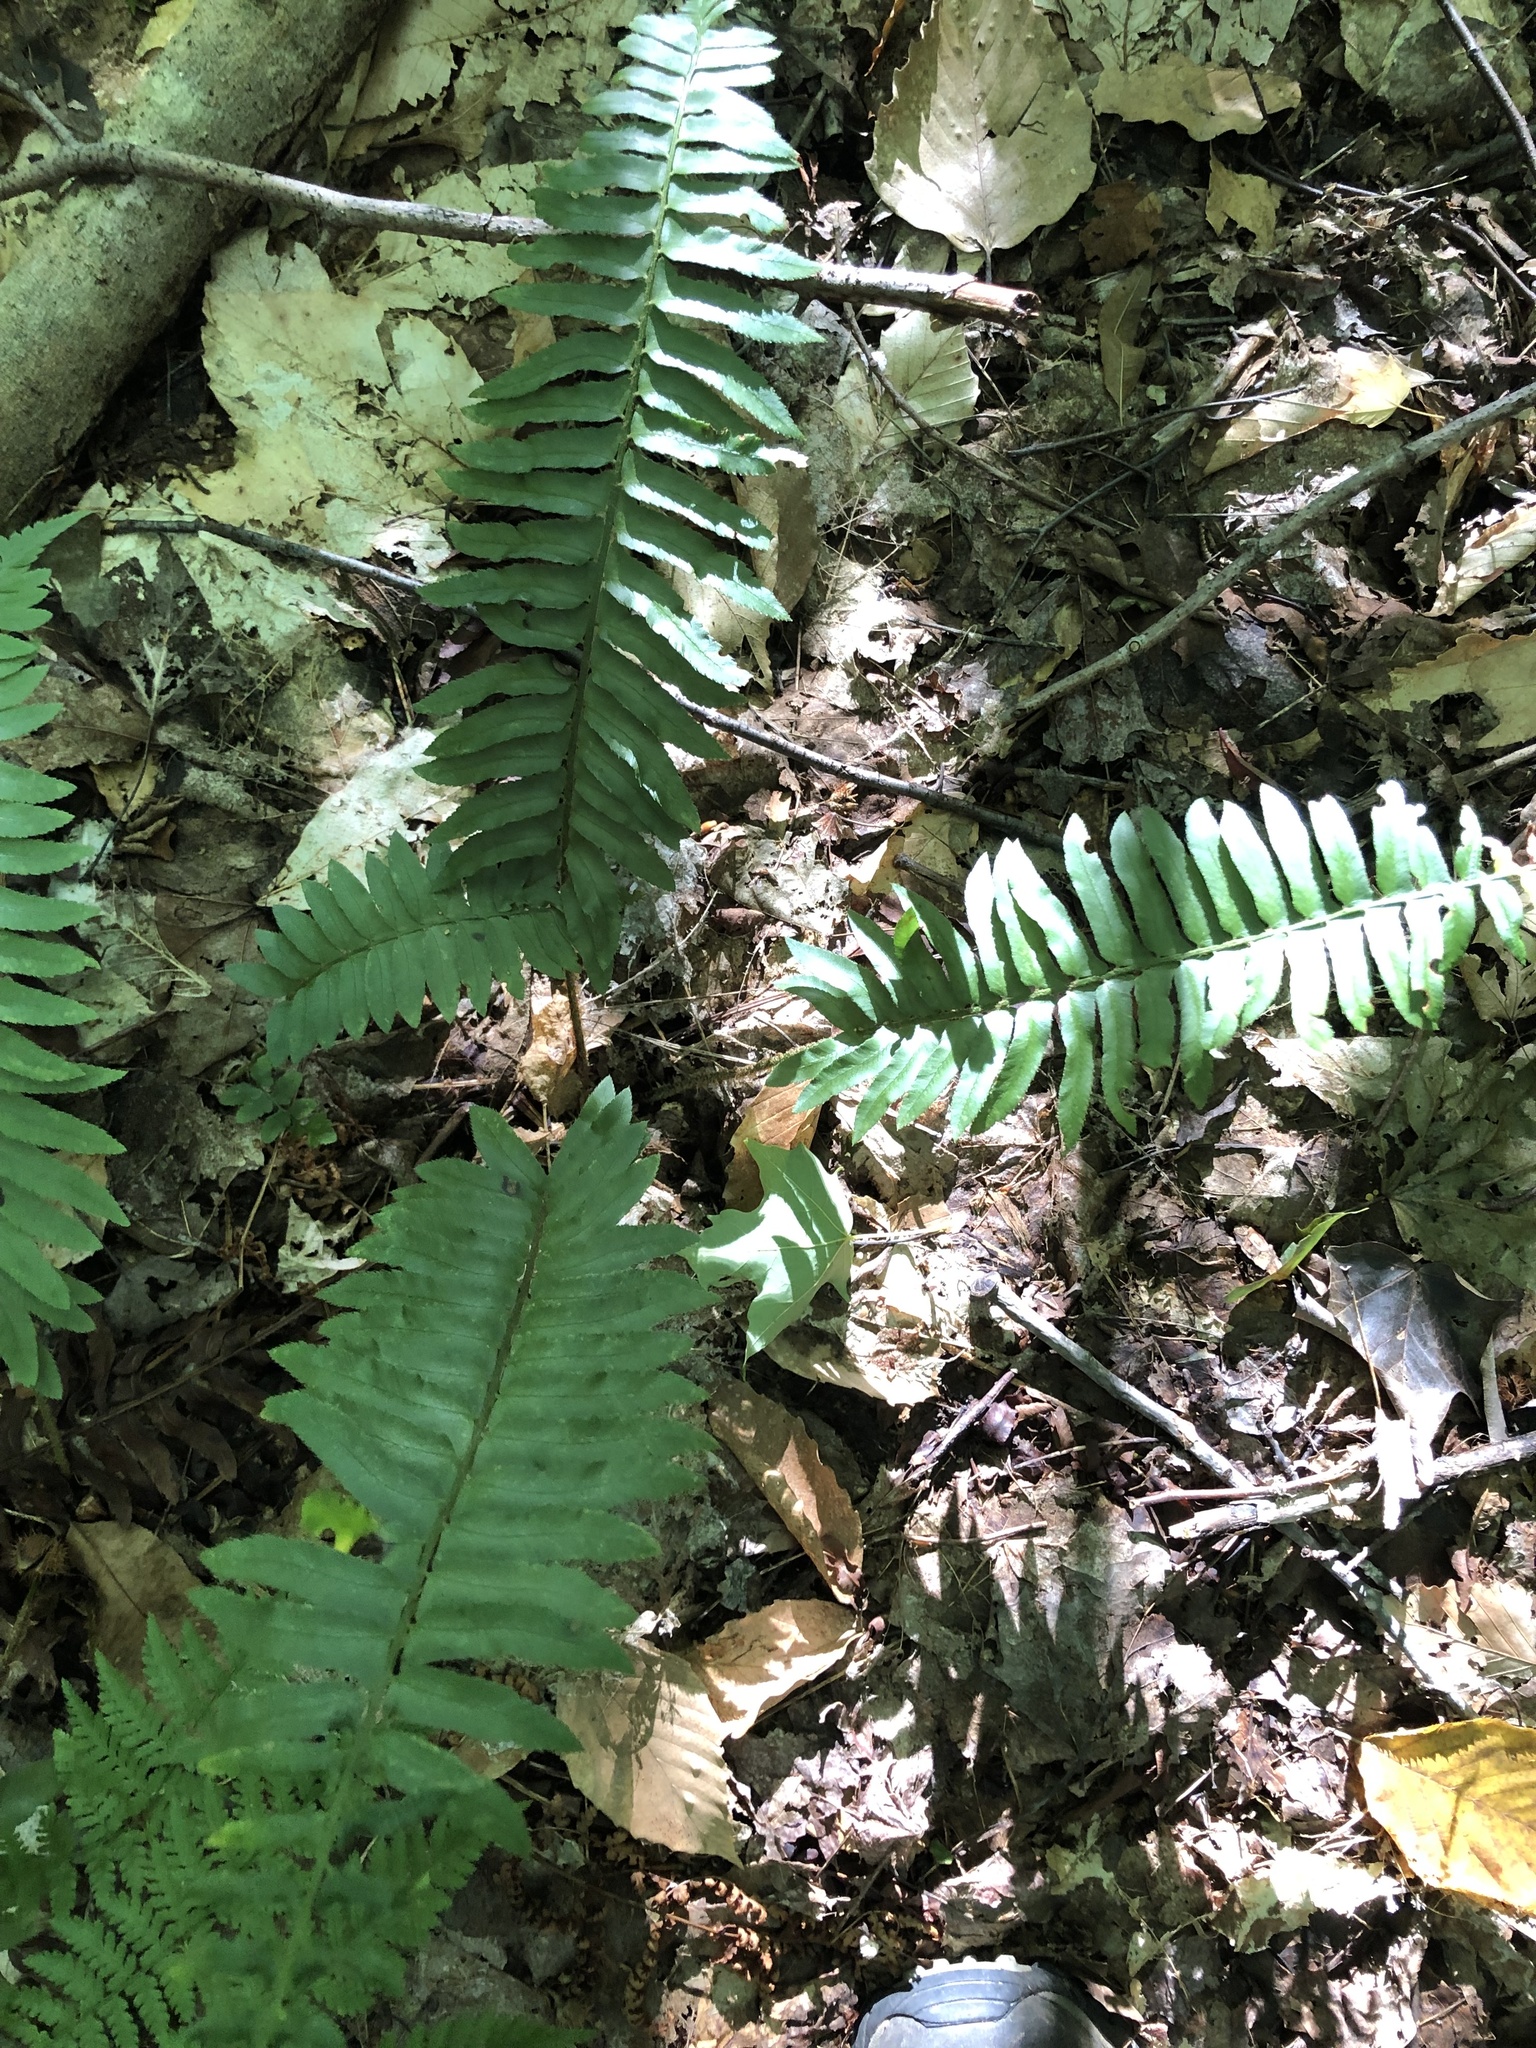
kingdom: Plantae
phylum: Tracheophyta
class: Polypodiopsida
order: Polypodiales
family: Dryopteridaceae
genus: Polystichum
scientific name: Polystichum acrostichoides
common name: Christmas fern
